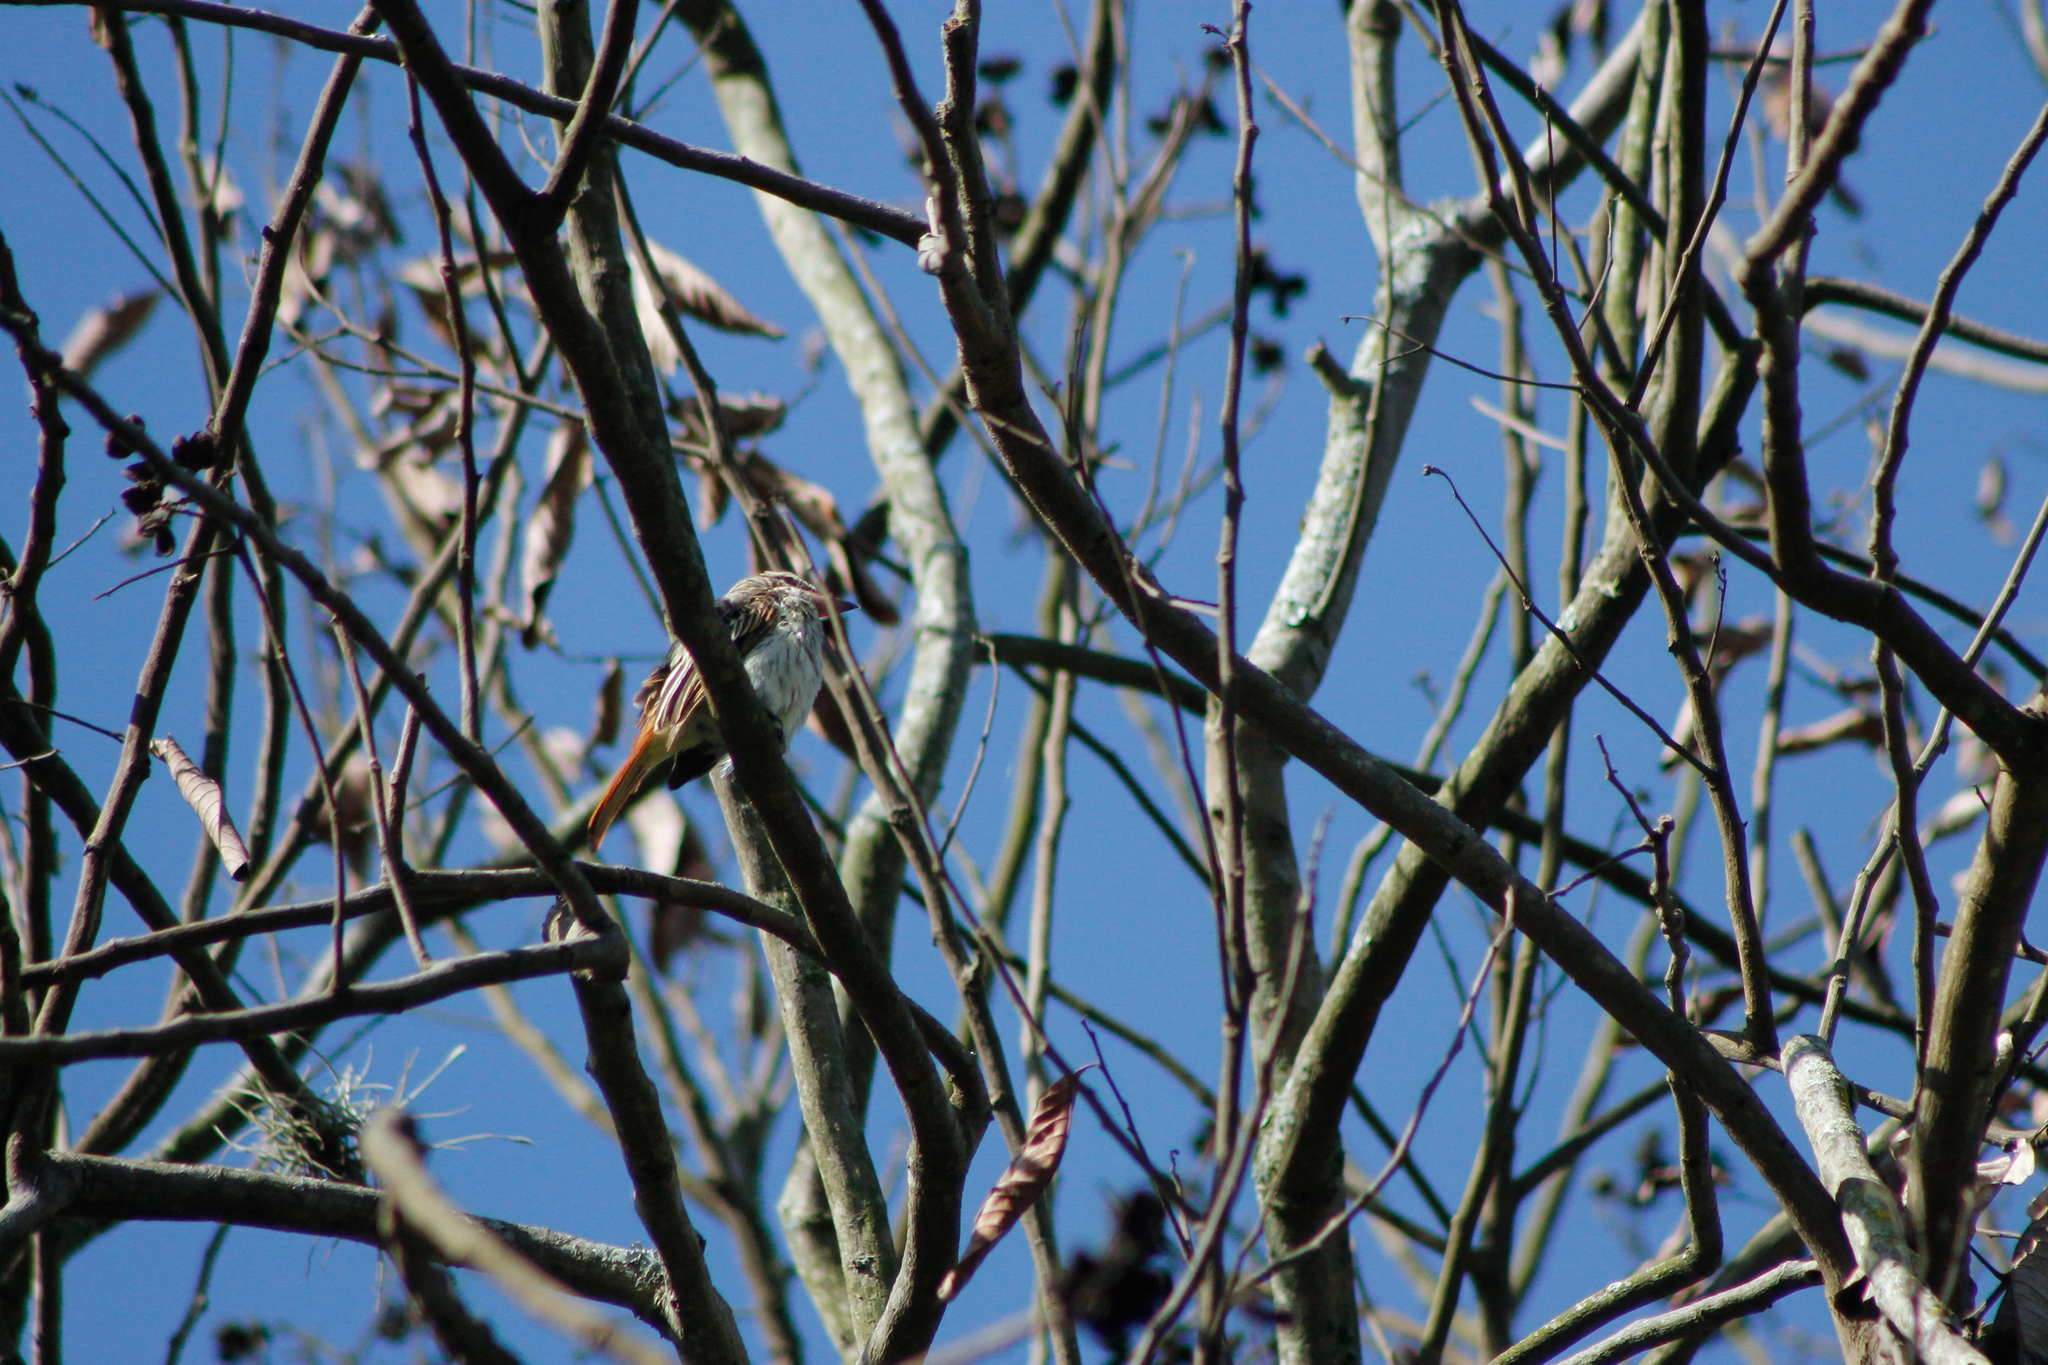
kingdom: Animalia
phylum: Chordata
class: Aves
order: Passeriformes
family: Tyrannidae
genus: Myiodynastes
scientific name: Myiodynastes maculatus
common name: Streaked flycatcher
